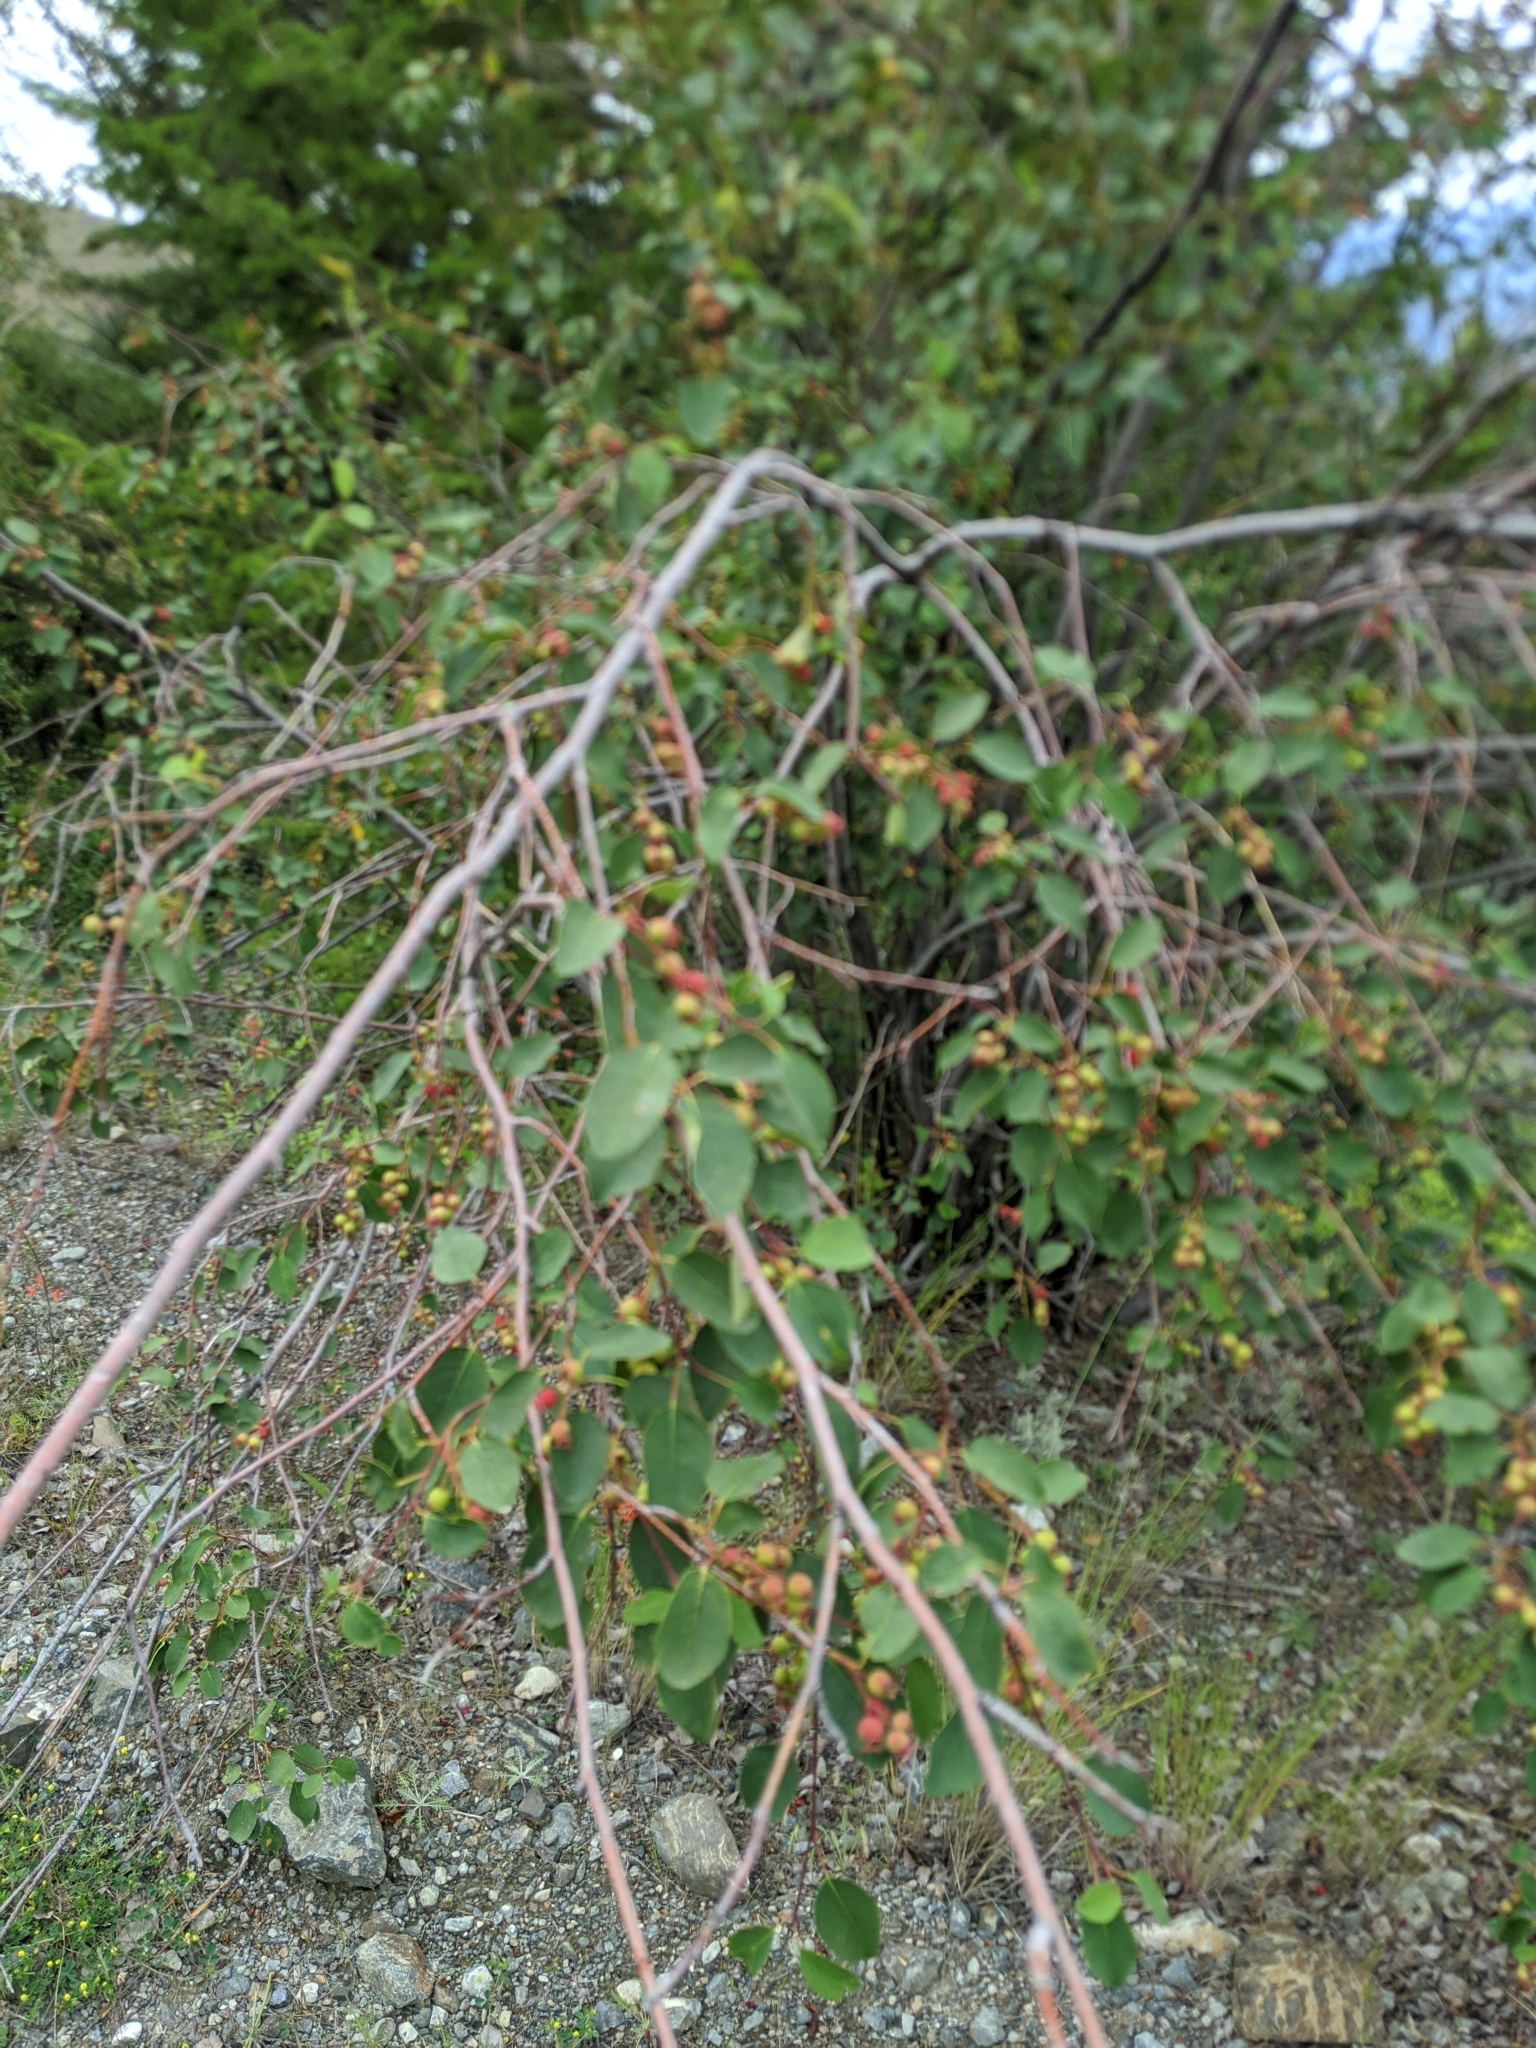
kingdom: Plantae
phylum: Tracheophyta
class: Magnoliopsida
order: Rosales
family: Rosaceae
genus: Amelanchier
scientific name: Amelanchier alnifolia
